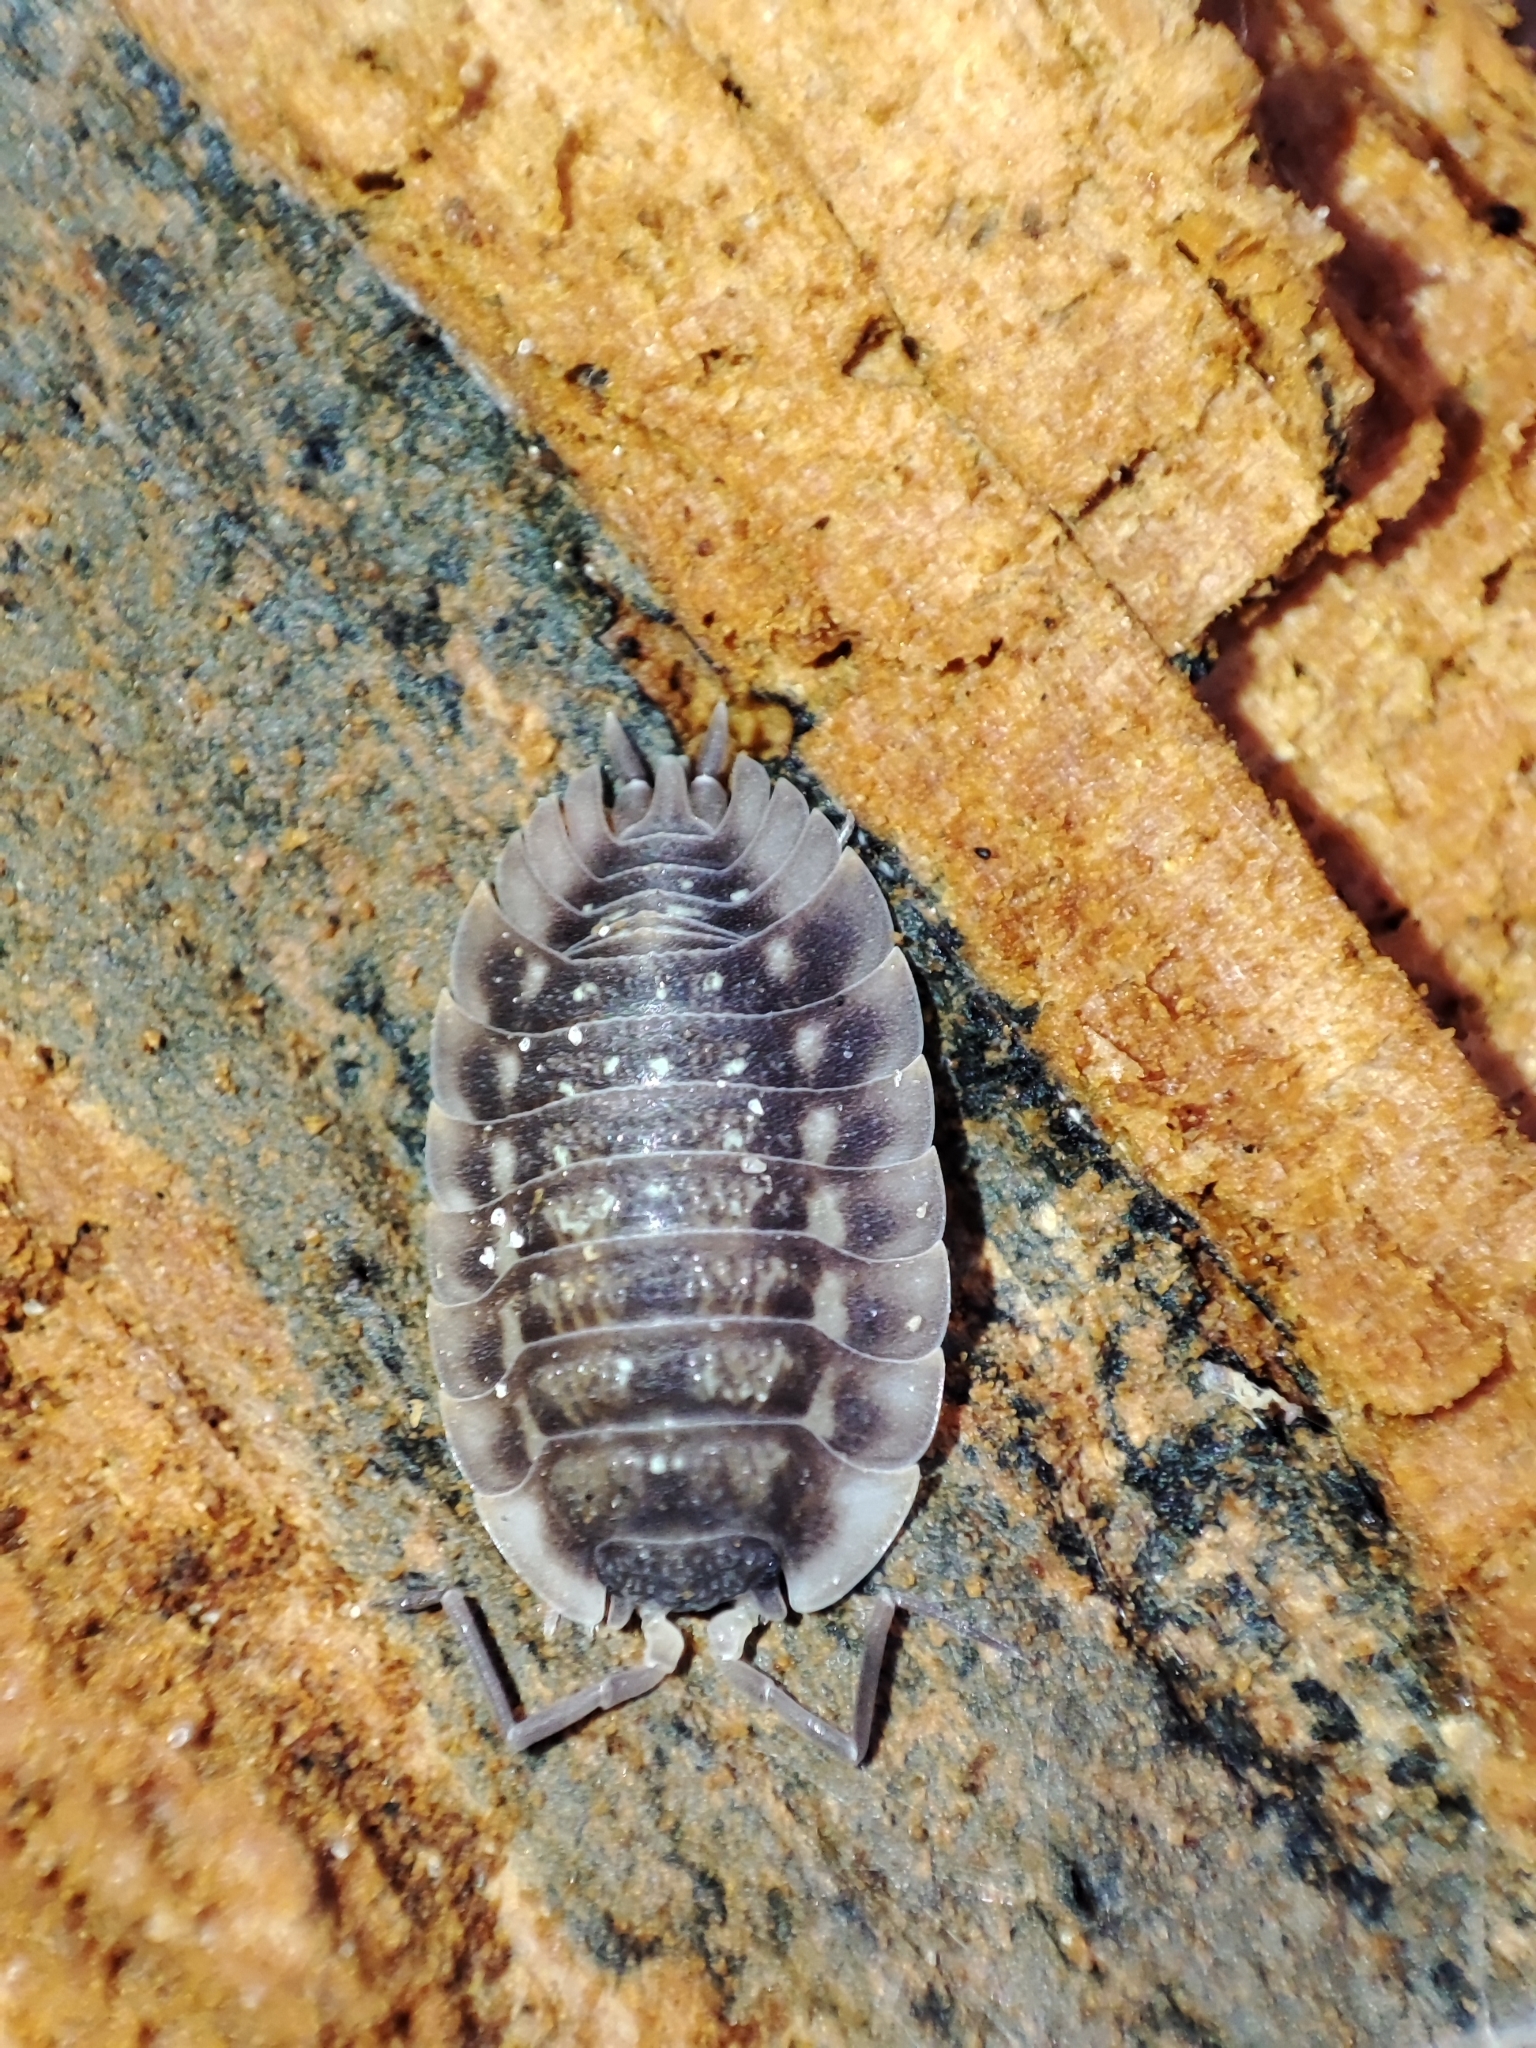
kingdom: Animalia
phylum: Arthropoda
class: Malacostraca
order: Isopoda
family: Oniscidae
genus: Oniscus
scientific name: Oniscus asellus
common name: Common shiny woodlouse
